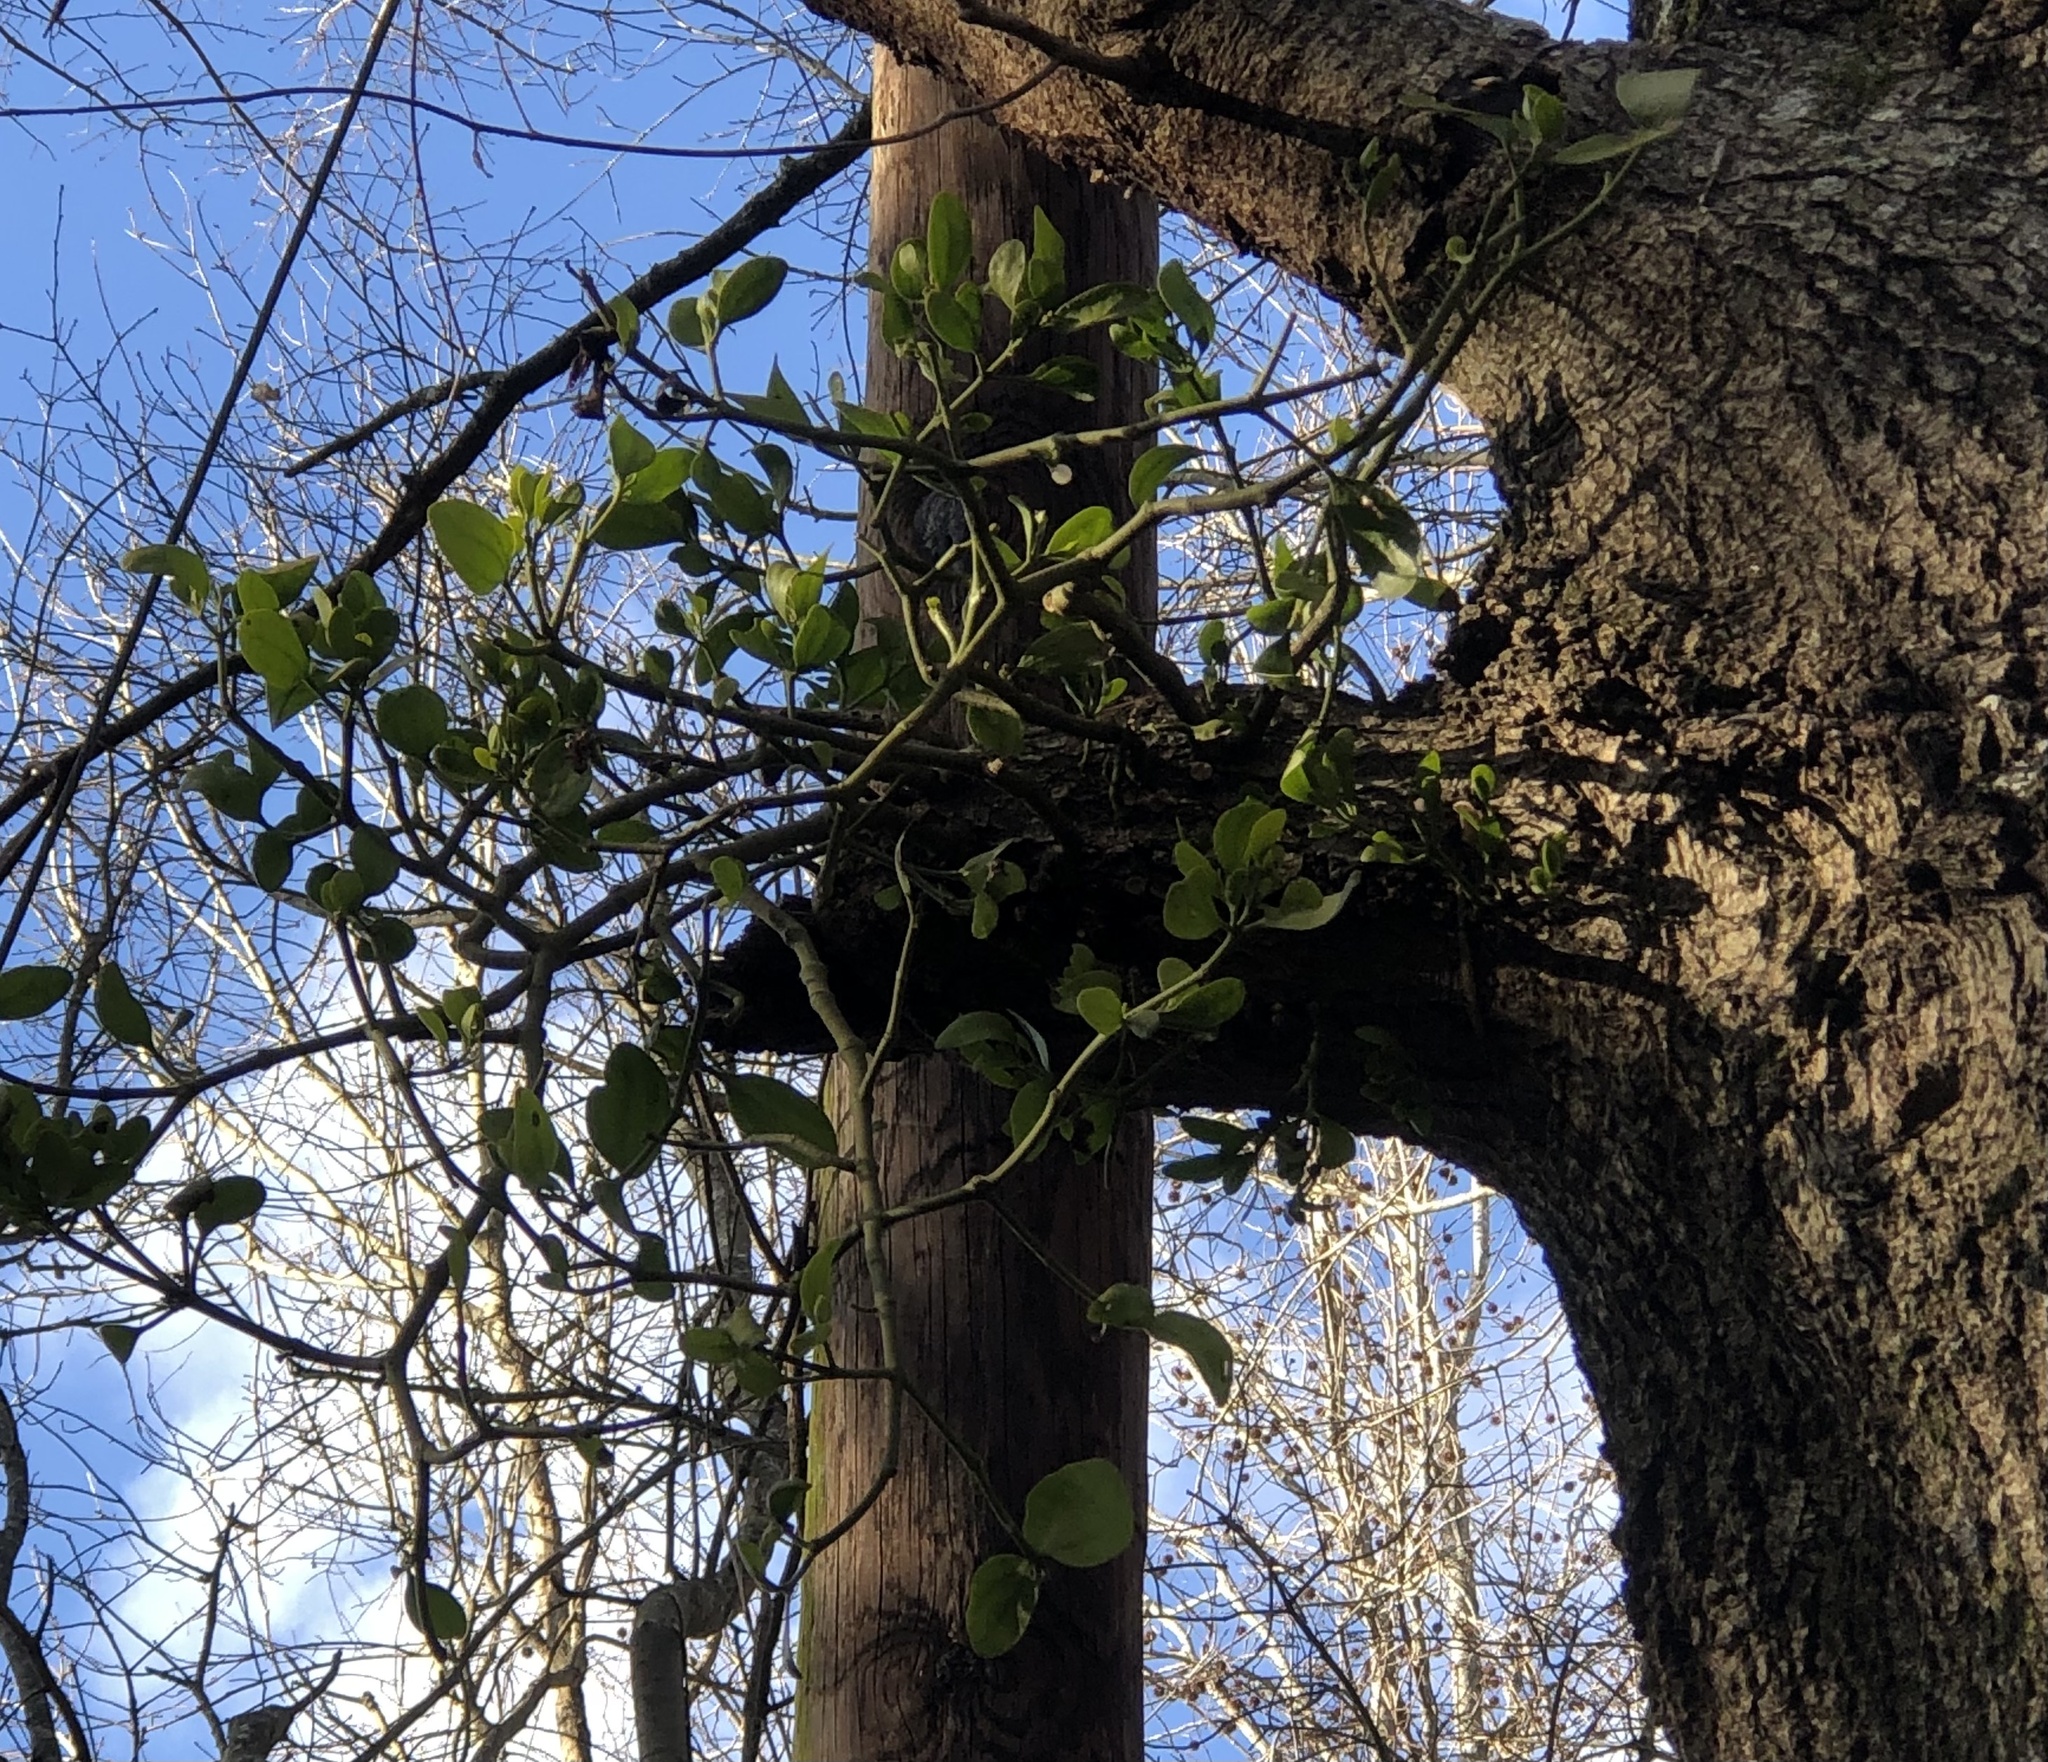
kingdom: Plantae
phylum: Tracheophyta
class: Magnoliopsida
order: Santalales
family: Viscaceae
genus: Phoradendron
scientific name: Phoradendron leucarpum
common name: Pacific mistletoe
